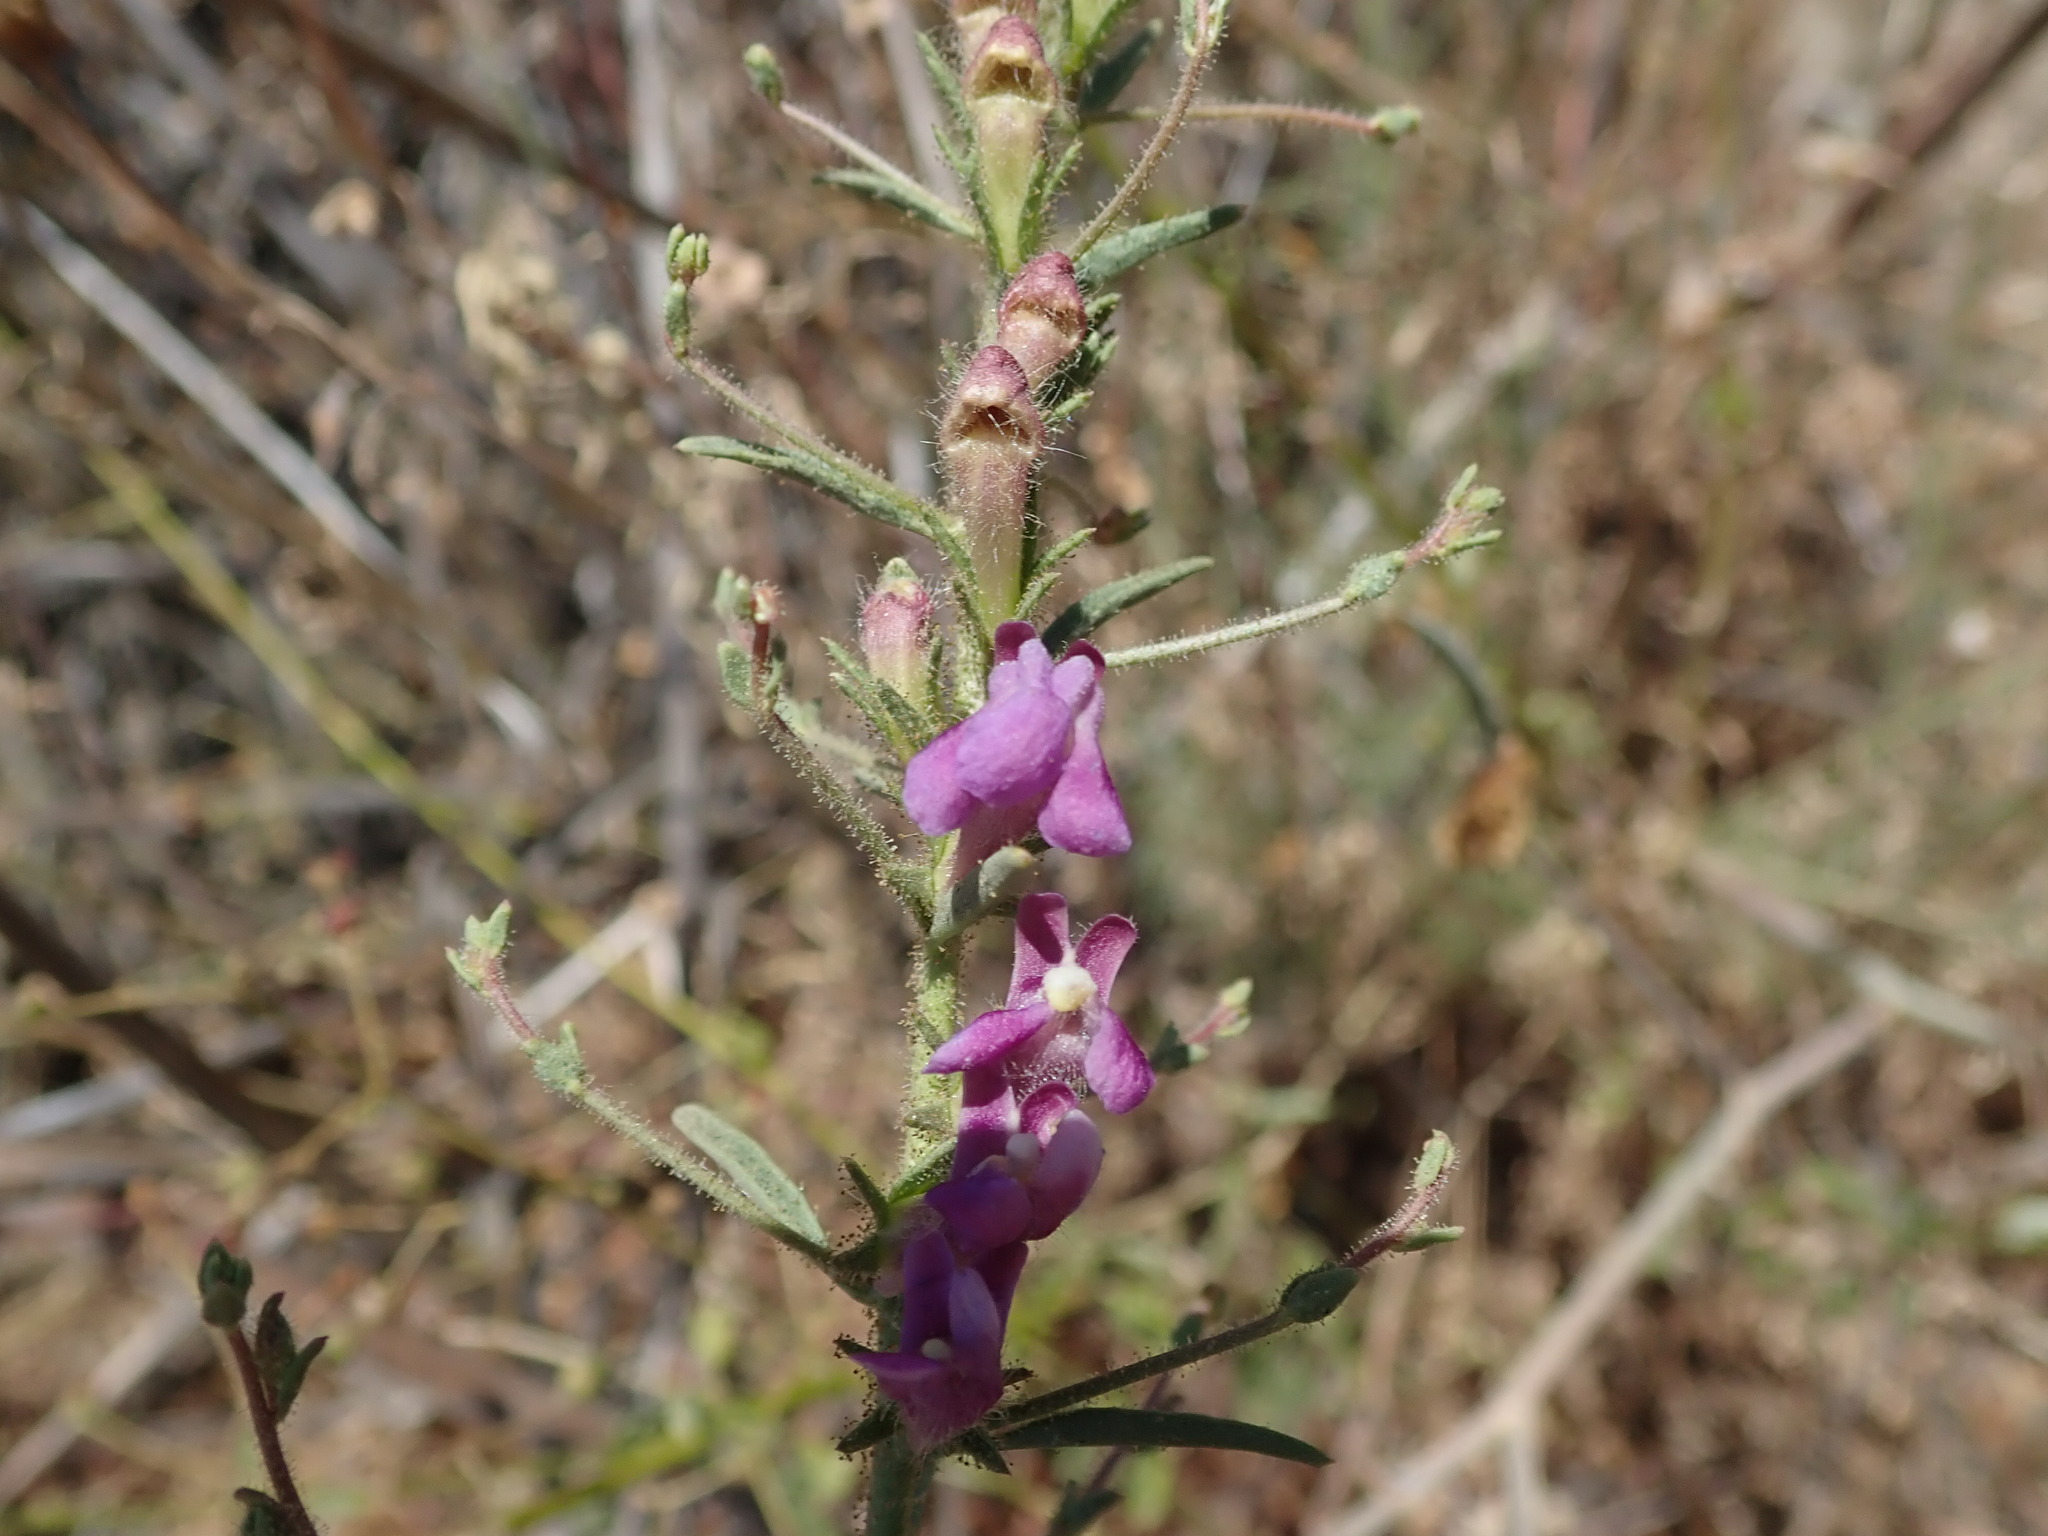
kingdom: Plantae
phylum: Tracheophyta
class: Magnoliopsida
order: Lamiales
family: Plantaginaceae
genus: Sairocarpus
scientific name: Sairocarpus vexillocalyculatus
